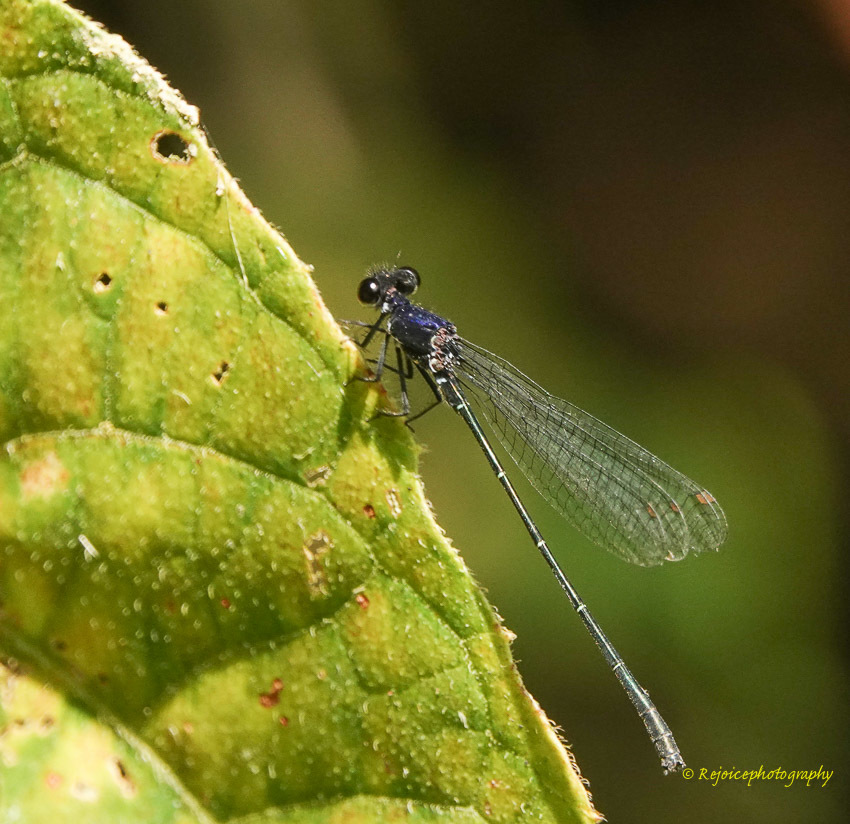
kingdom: Animalia
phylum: Arthropoda
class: Insecta
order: Odonata
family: Platycnemididae
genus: Onychargia
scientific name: Onychargia atrocyana
